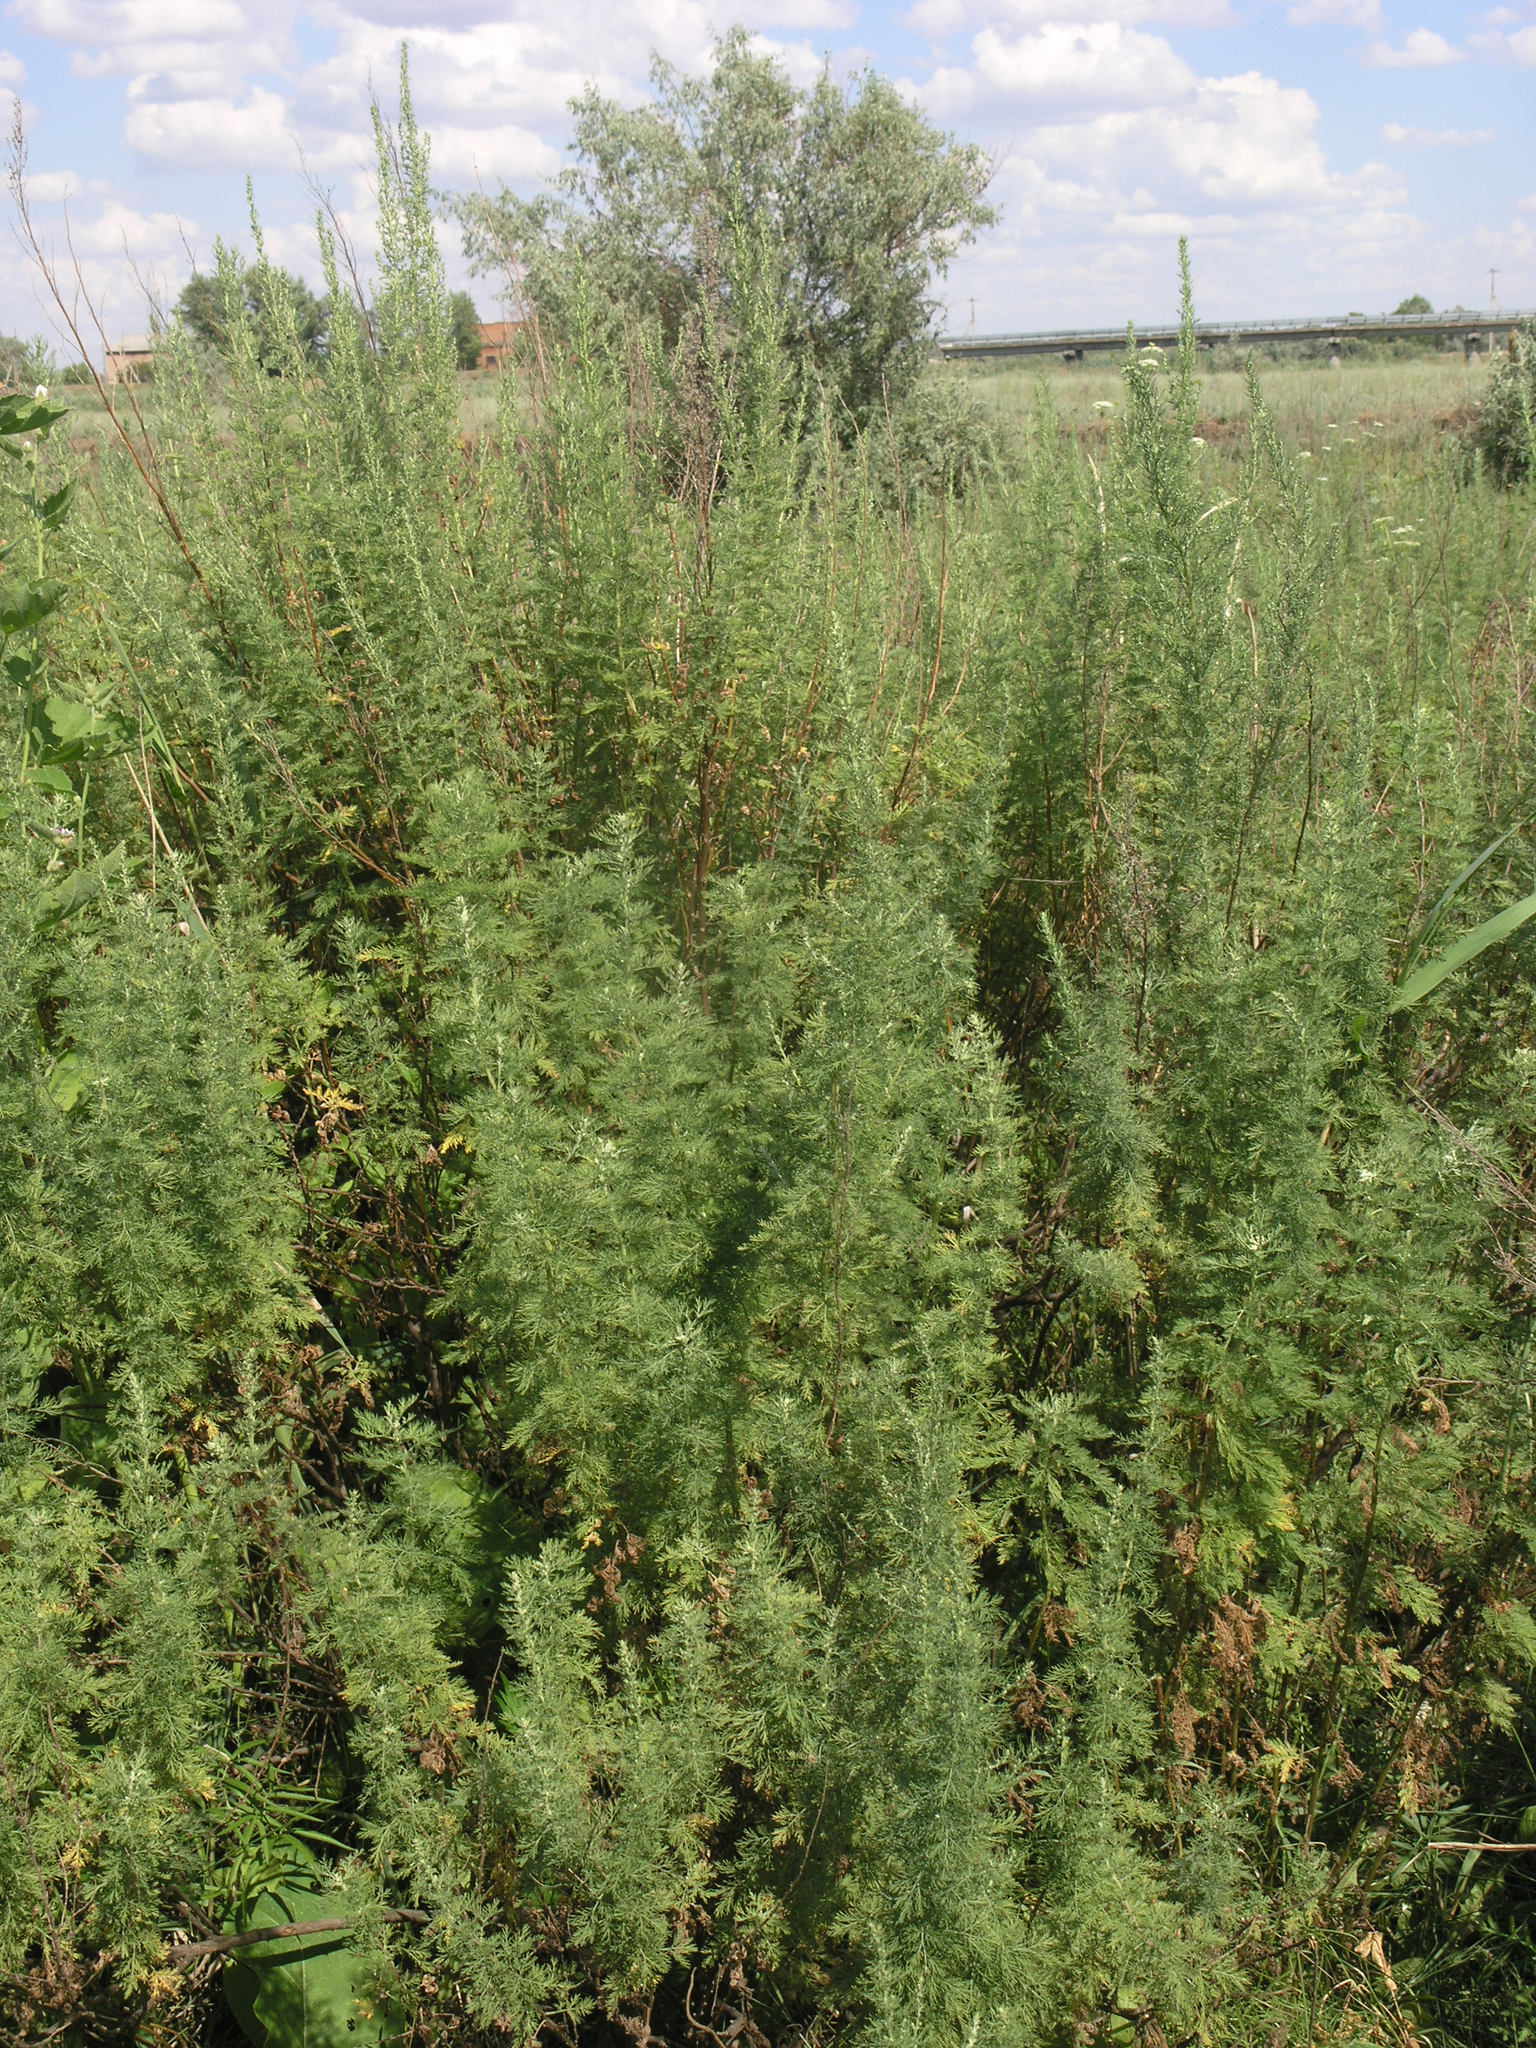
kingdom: Plantae
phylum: Tracheophyta
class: Magnoliopsida
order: Asterales
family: Asteraceae
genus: Artemisia
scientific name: Artemisia abrotanum
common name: Southernwood
